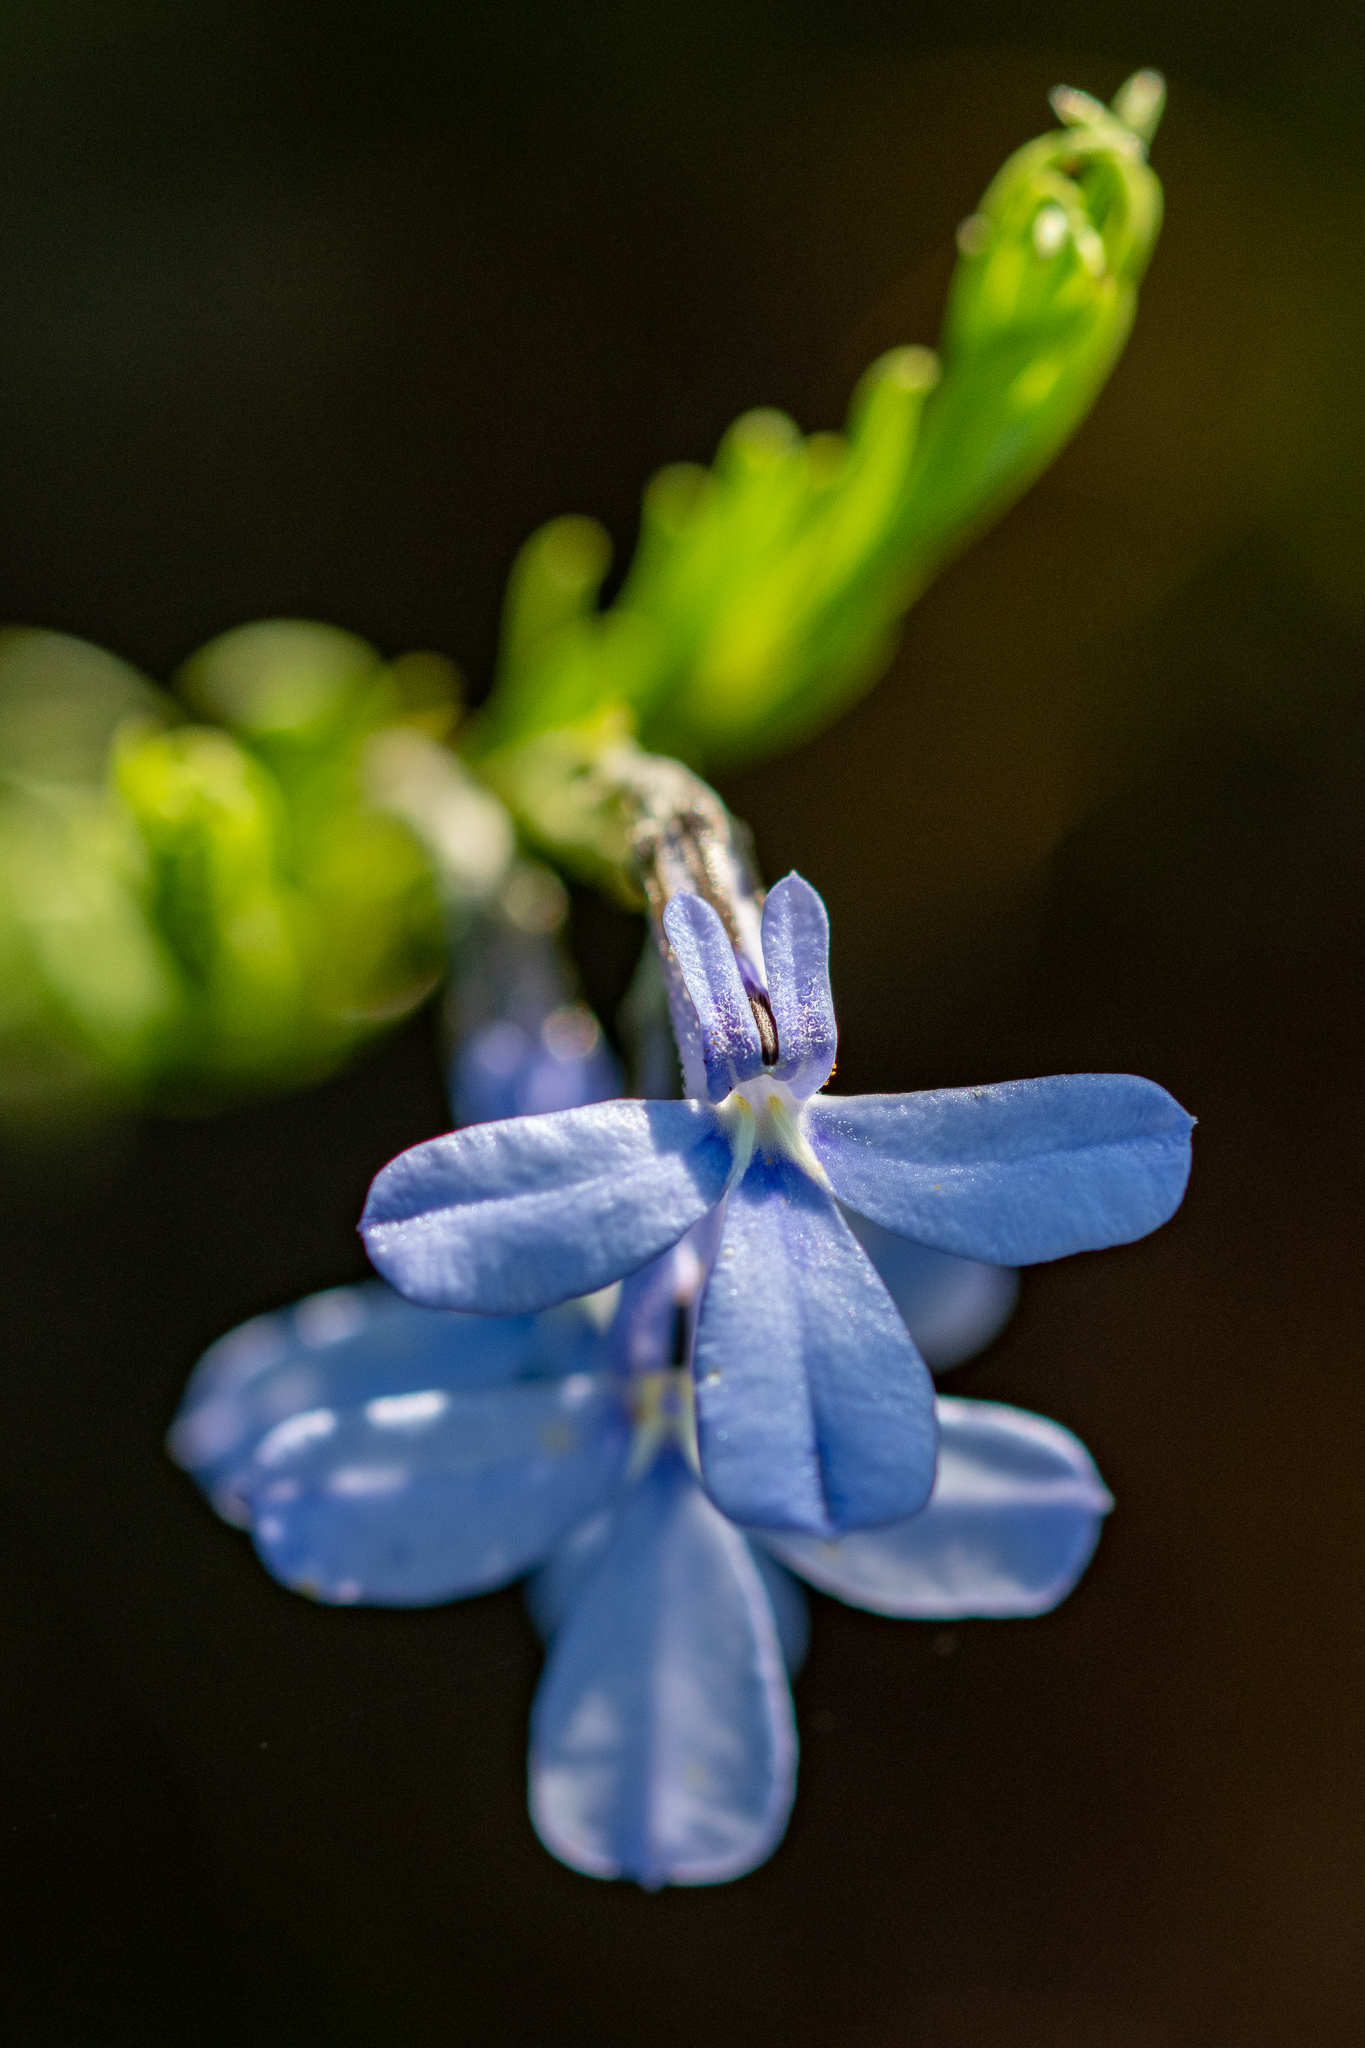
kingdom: Plantae
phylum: Tracheophyta
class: Magnoliopsida
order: Asterales
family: Campanulaceae
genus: Lobelia
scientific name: Lobelia pinifolia
